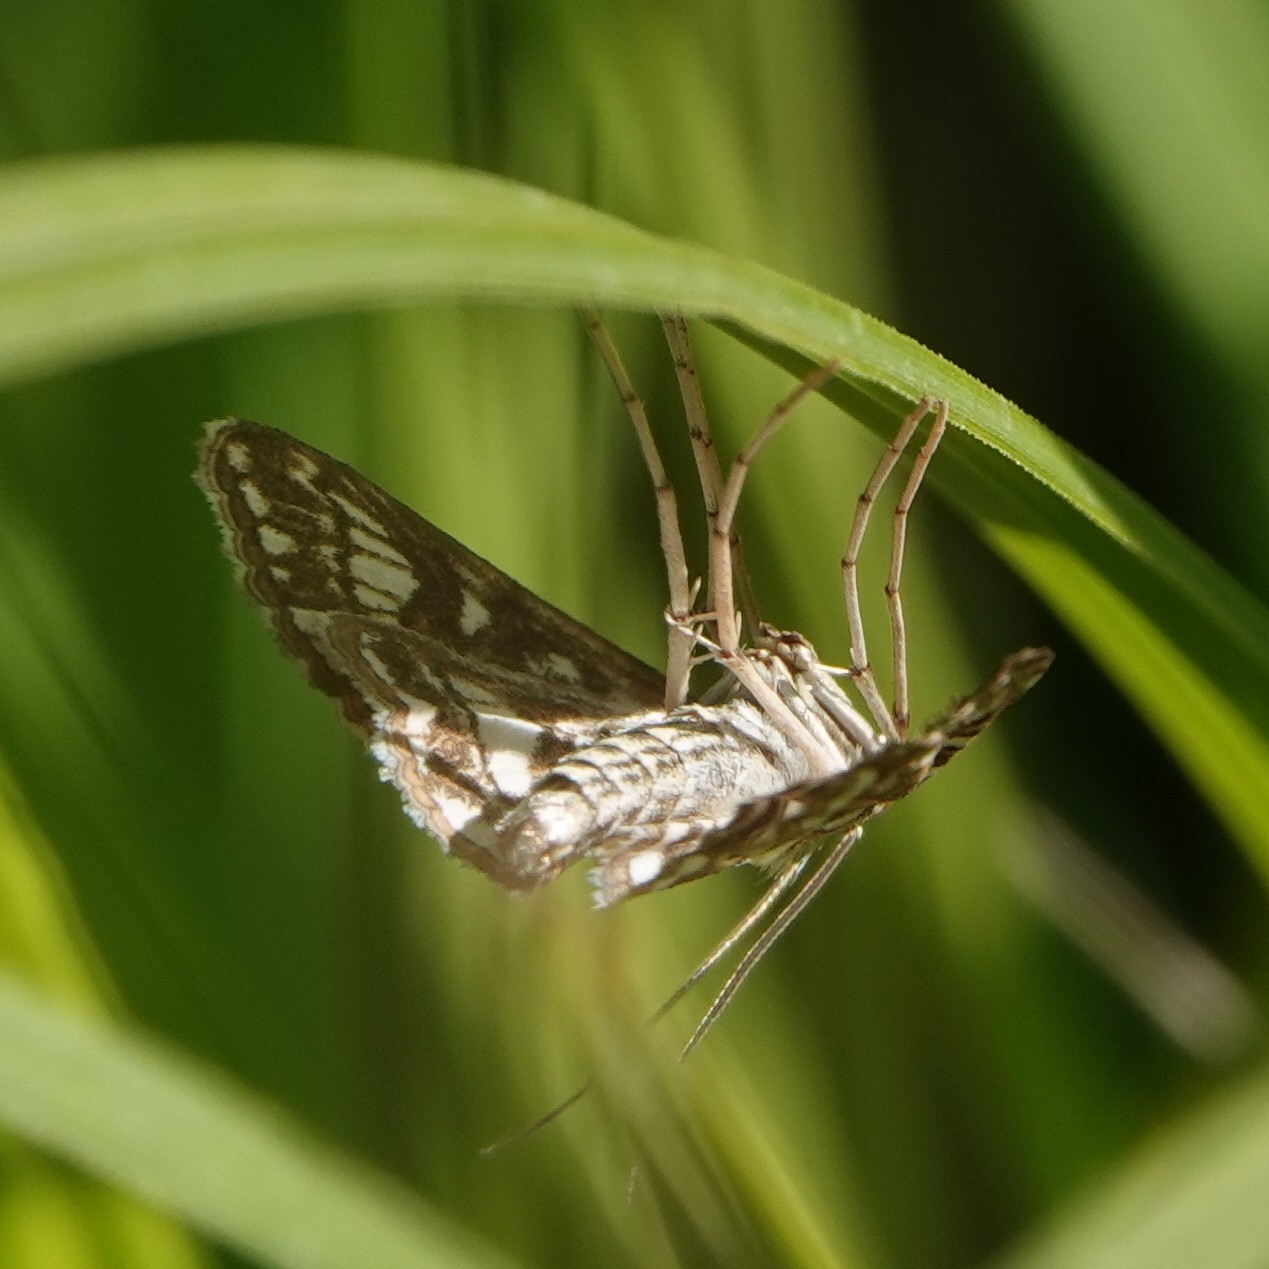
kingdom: Animalia
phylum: Arthropoda
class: Insecta
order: Lepidoptera
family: Crambidae
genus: Elophila
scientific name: Elophila nymphaeata
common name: Brown china-mark
